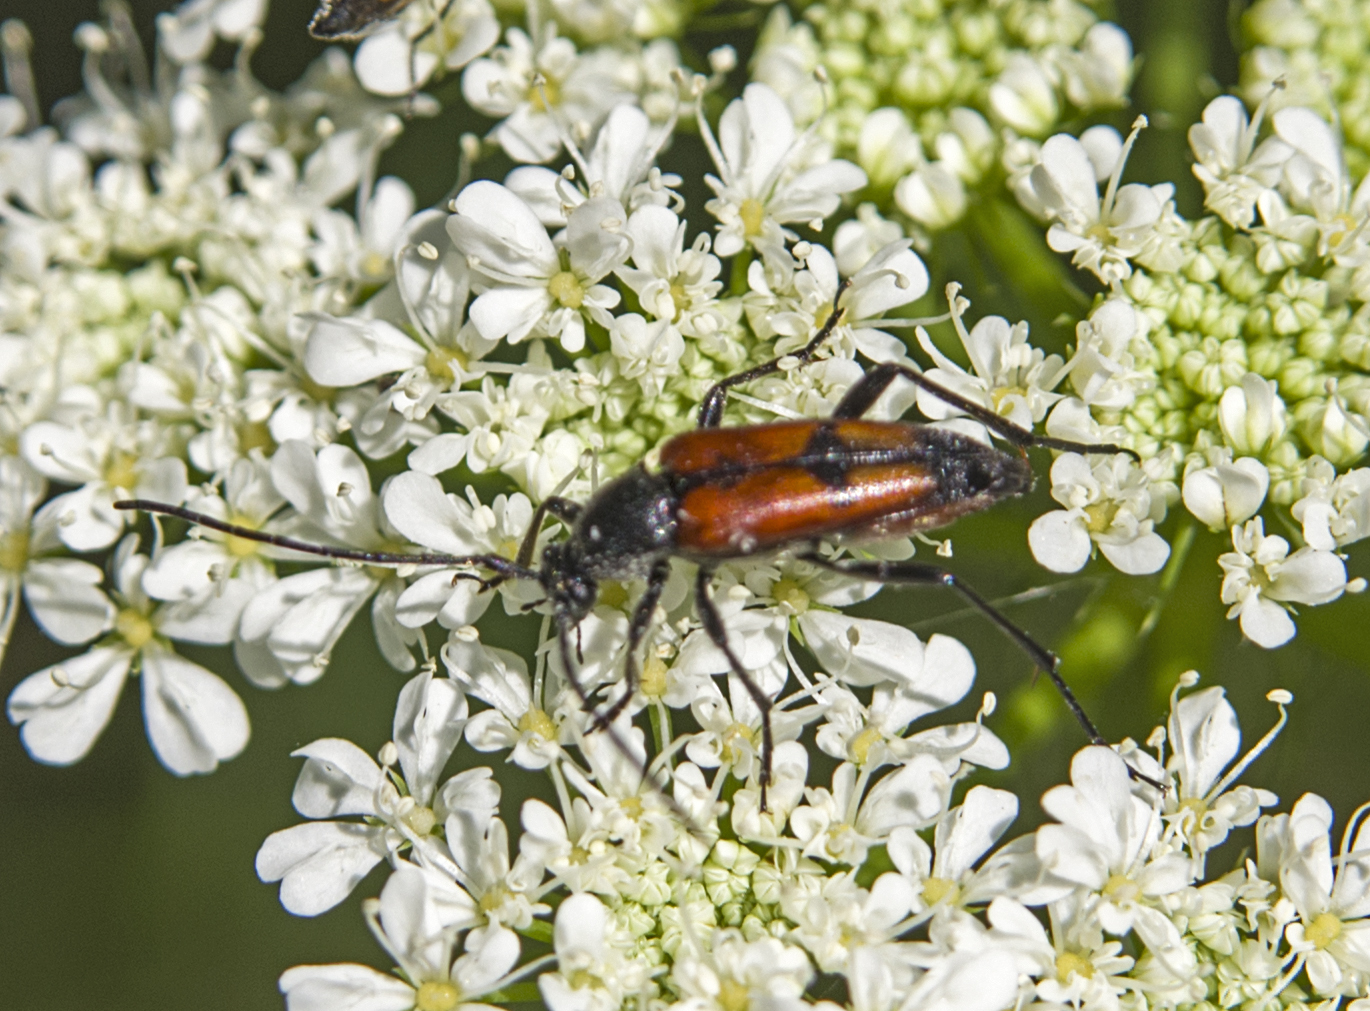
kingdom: Animalia
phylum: Arthropoda
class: Insecta
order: Coleoptera
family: Cerambycidae
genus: Stenurella
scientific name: Stenurella bifasciata
